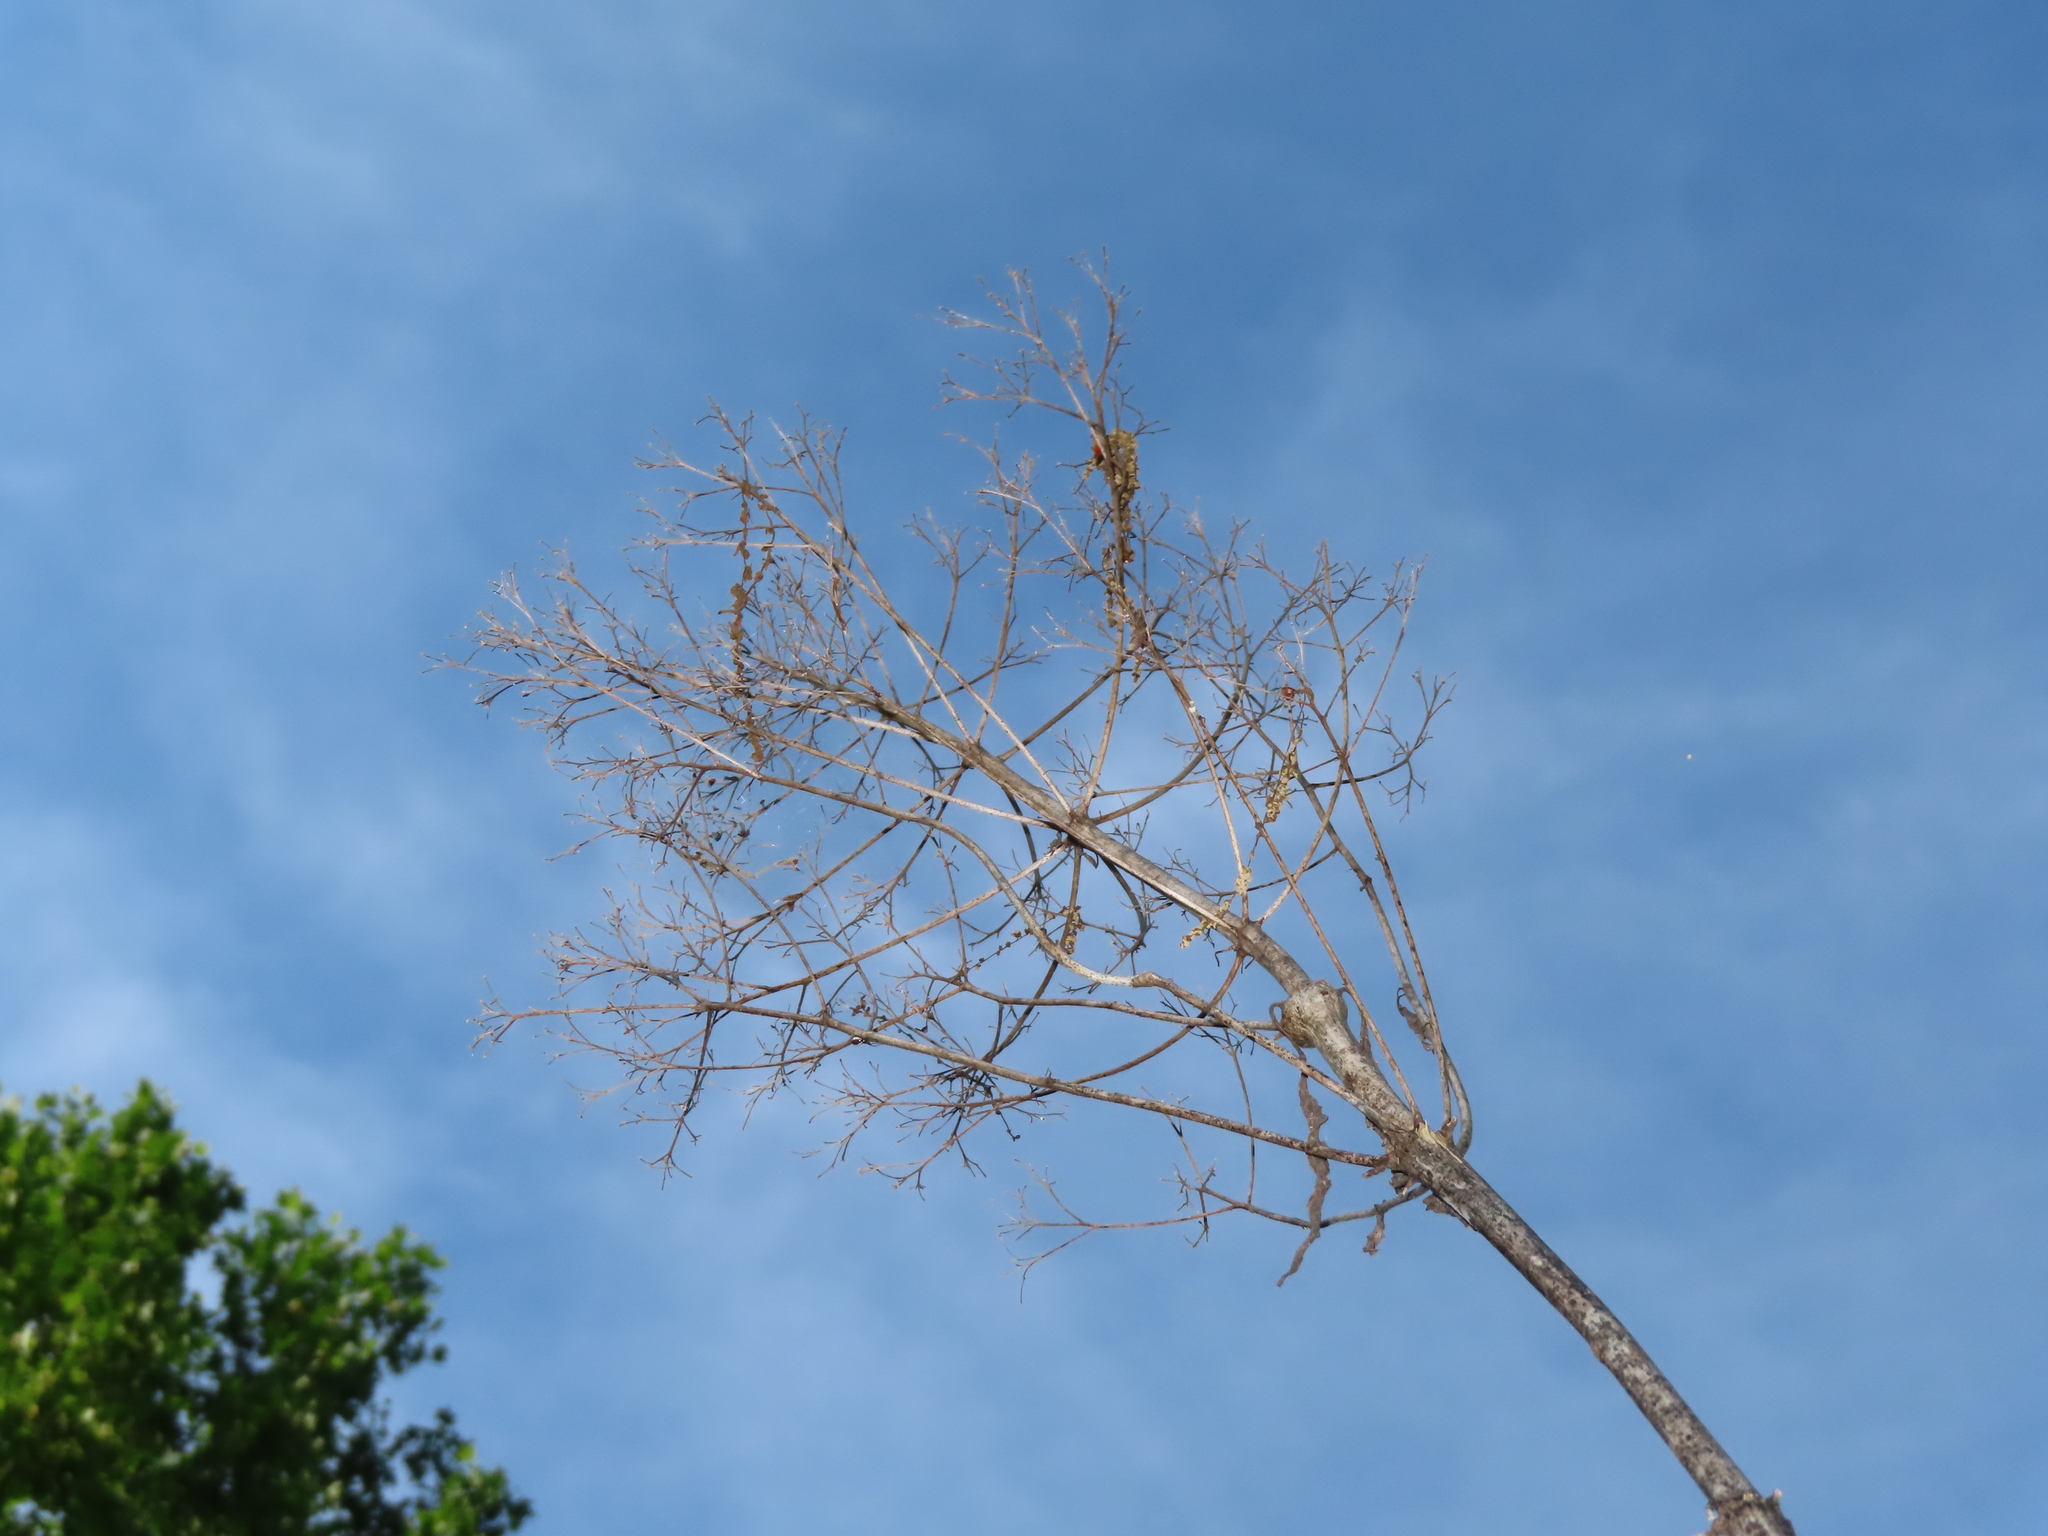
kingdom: Plantae
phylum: Tracheophyta
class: Magnoliopsida
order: Apiales
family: Apiaceae
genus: Heracleum
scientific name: Heracleum maximum
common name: American cow parsnip
